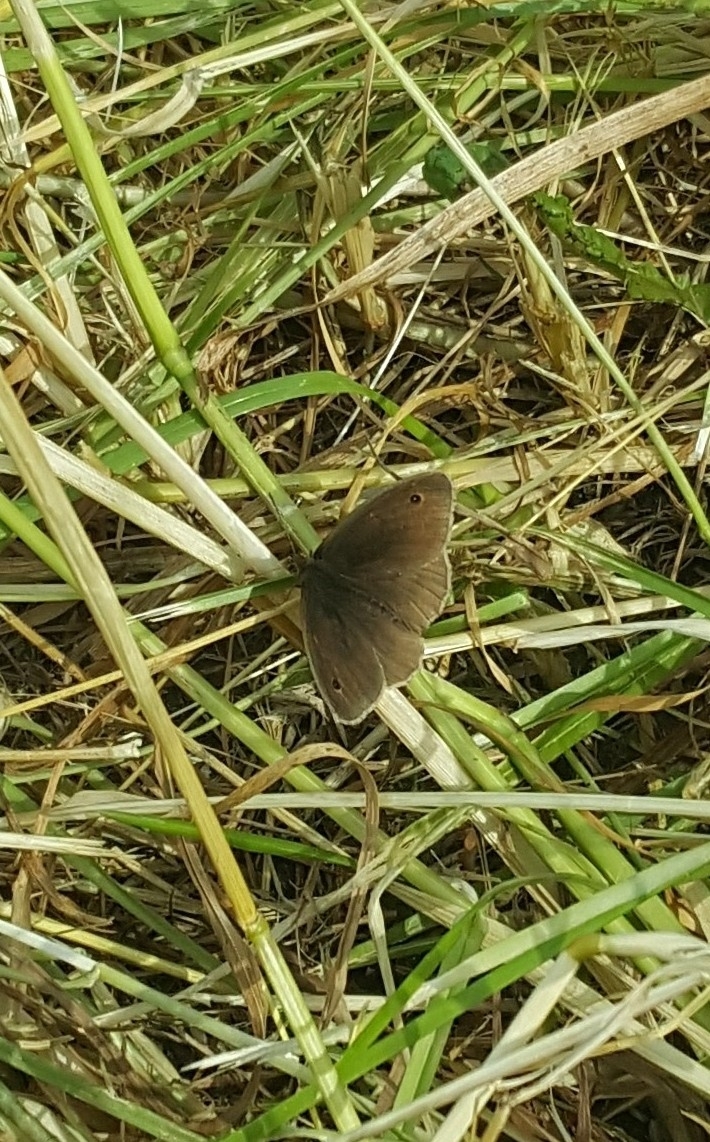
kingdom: Animalia
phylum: Arthropoda
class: Insecta
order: Lepidoptera
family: Nymphalidae
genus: Maniola
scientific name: Maniola jurtina
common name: Meadow brown
